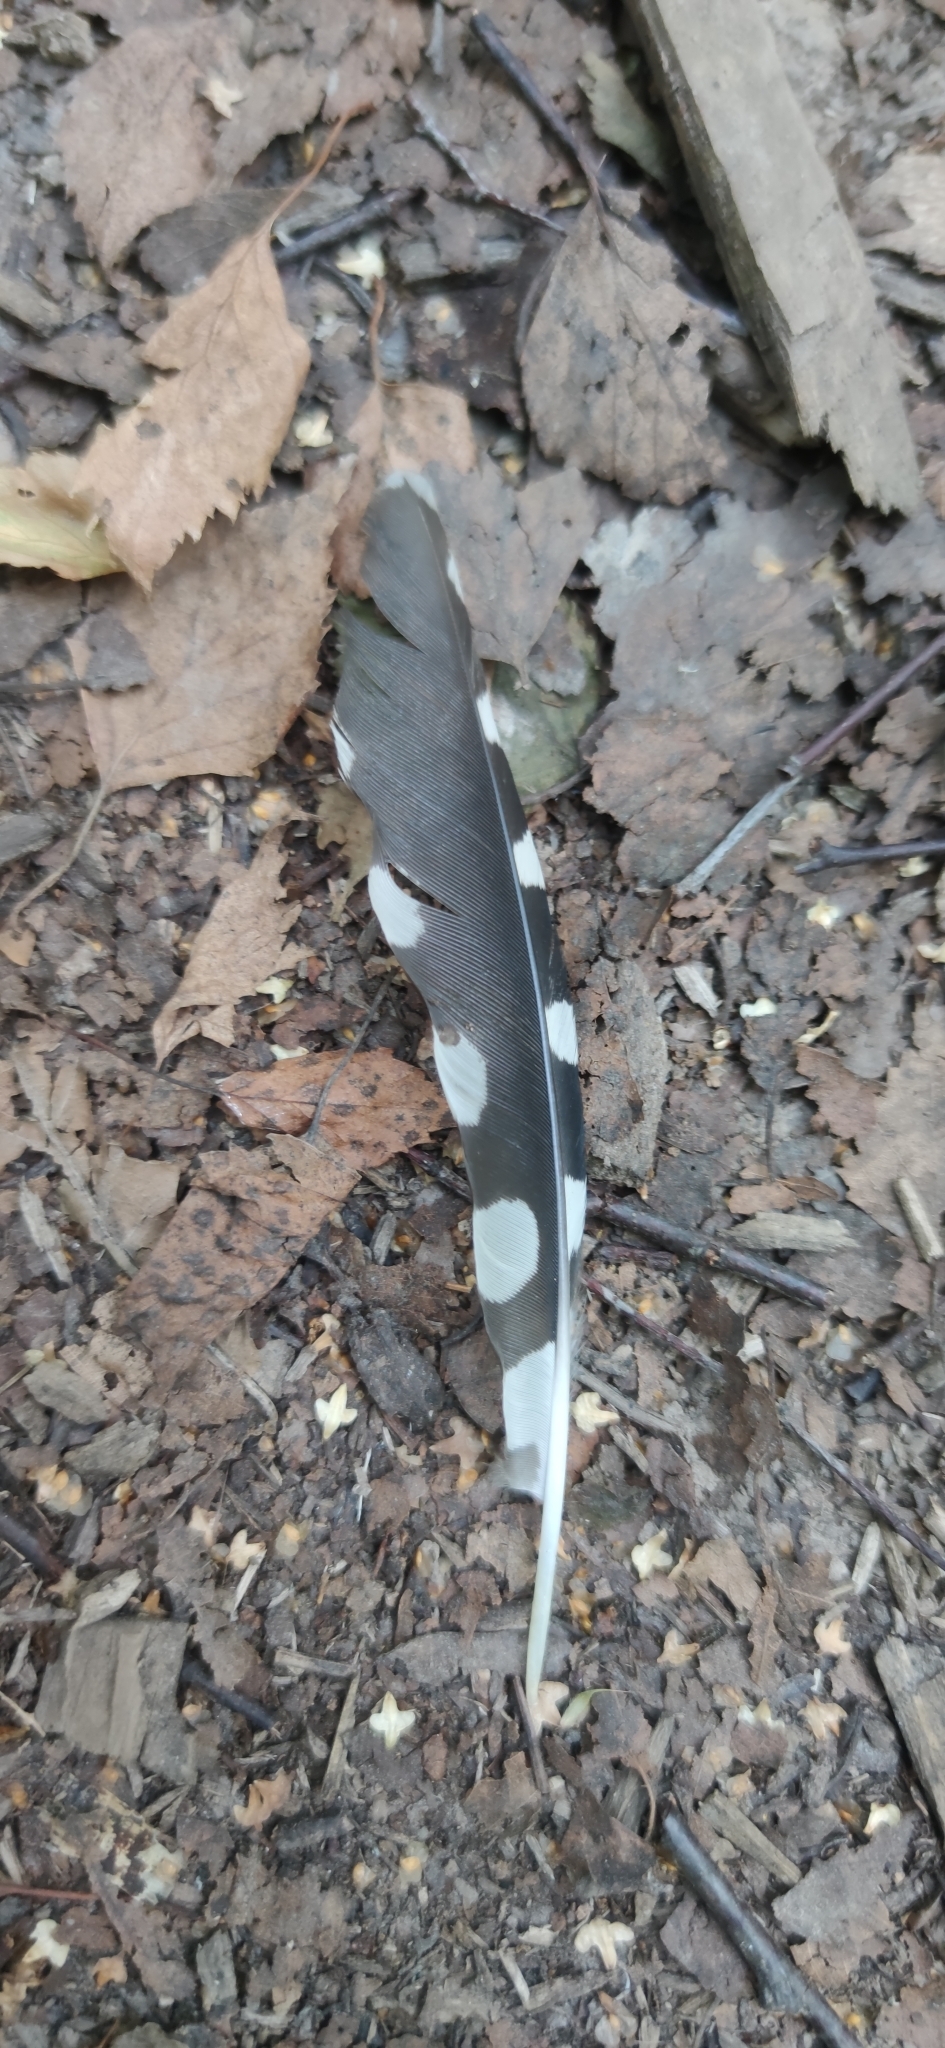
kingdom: Animalia
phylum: Chordata
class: Aves
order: Piciformes
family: Picidae
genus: Dendrocopos
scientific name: Dendrocopos major
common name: Great spotted woodpecker
